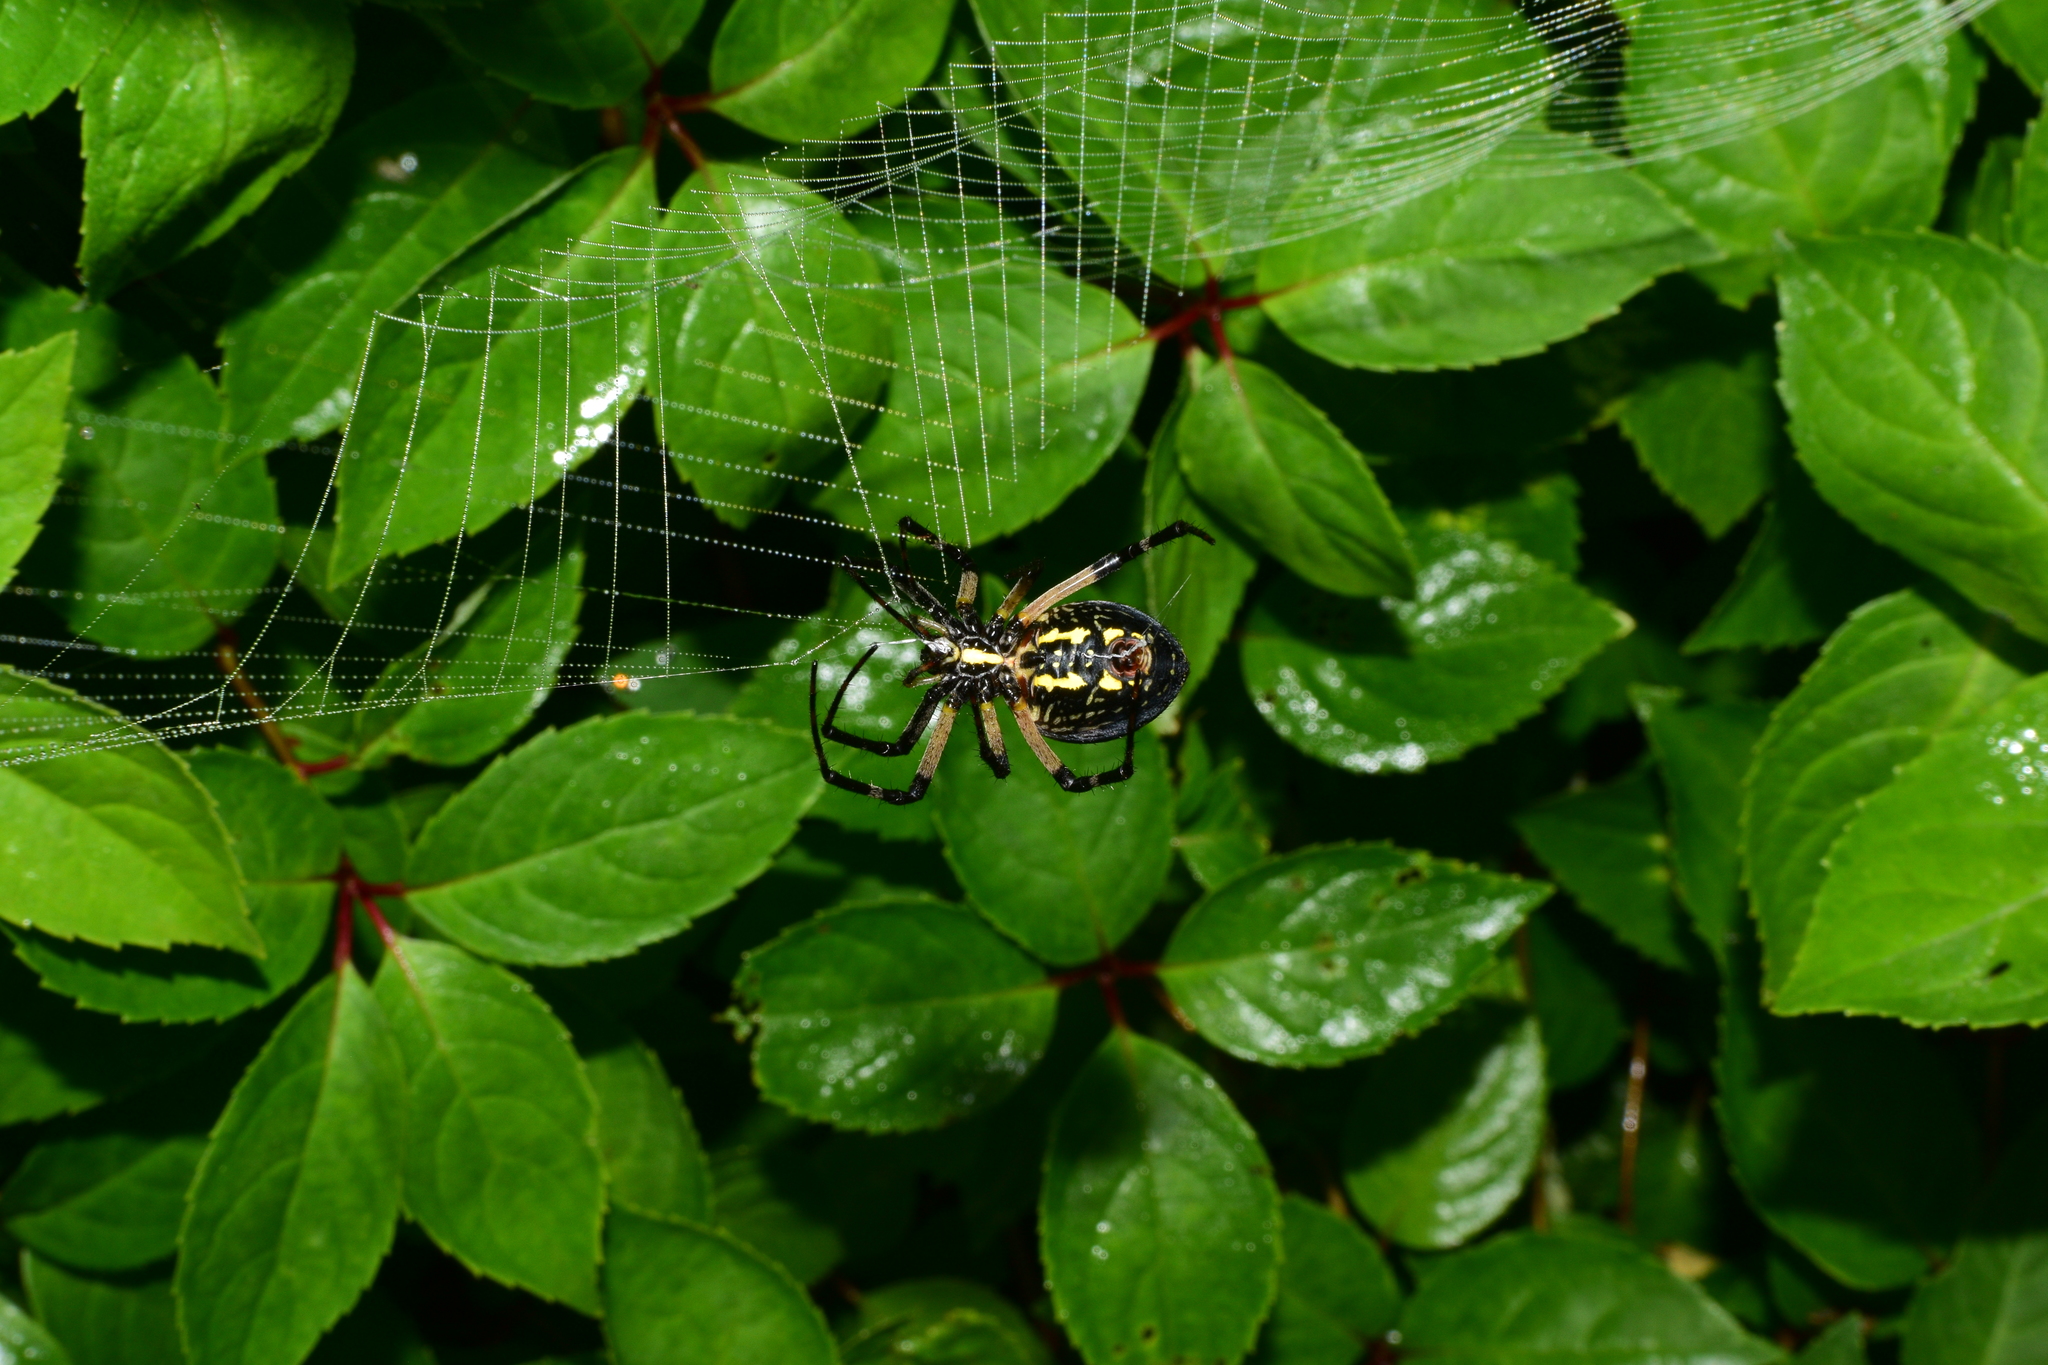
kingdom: Animalia
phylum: Arthropoda
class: Arachnida
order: Araneae
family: Araneidae
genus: Argiope
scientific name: Argiope aurantia
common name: Orb weavers
